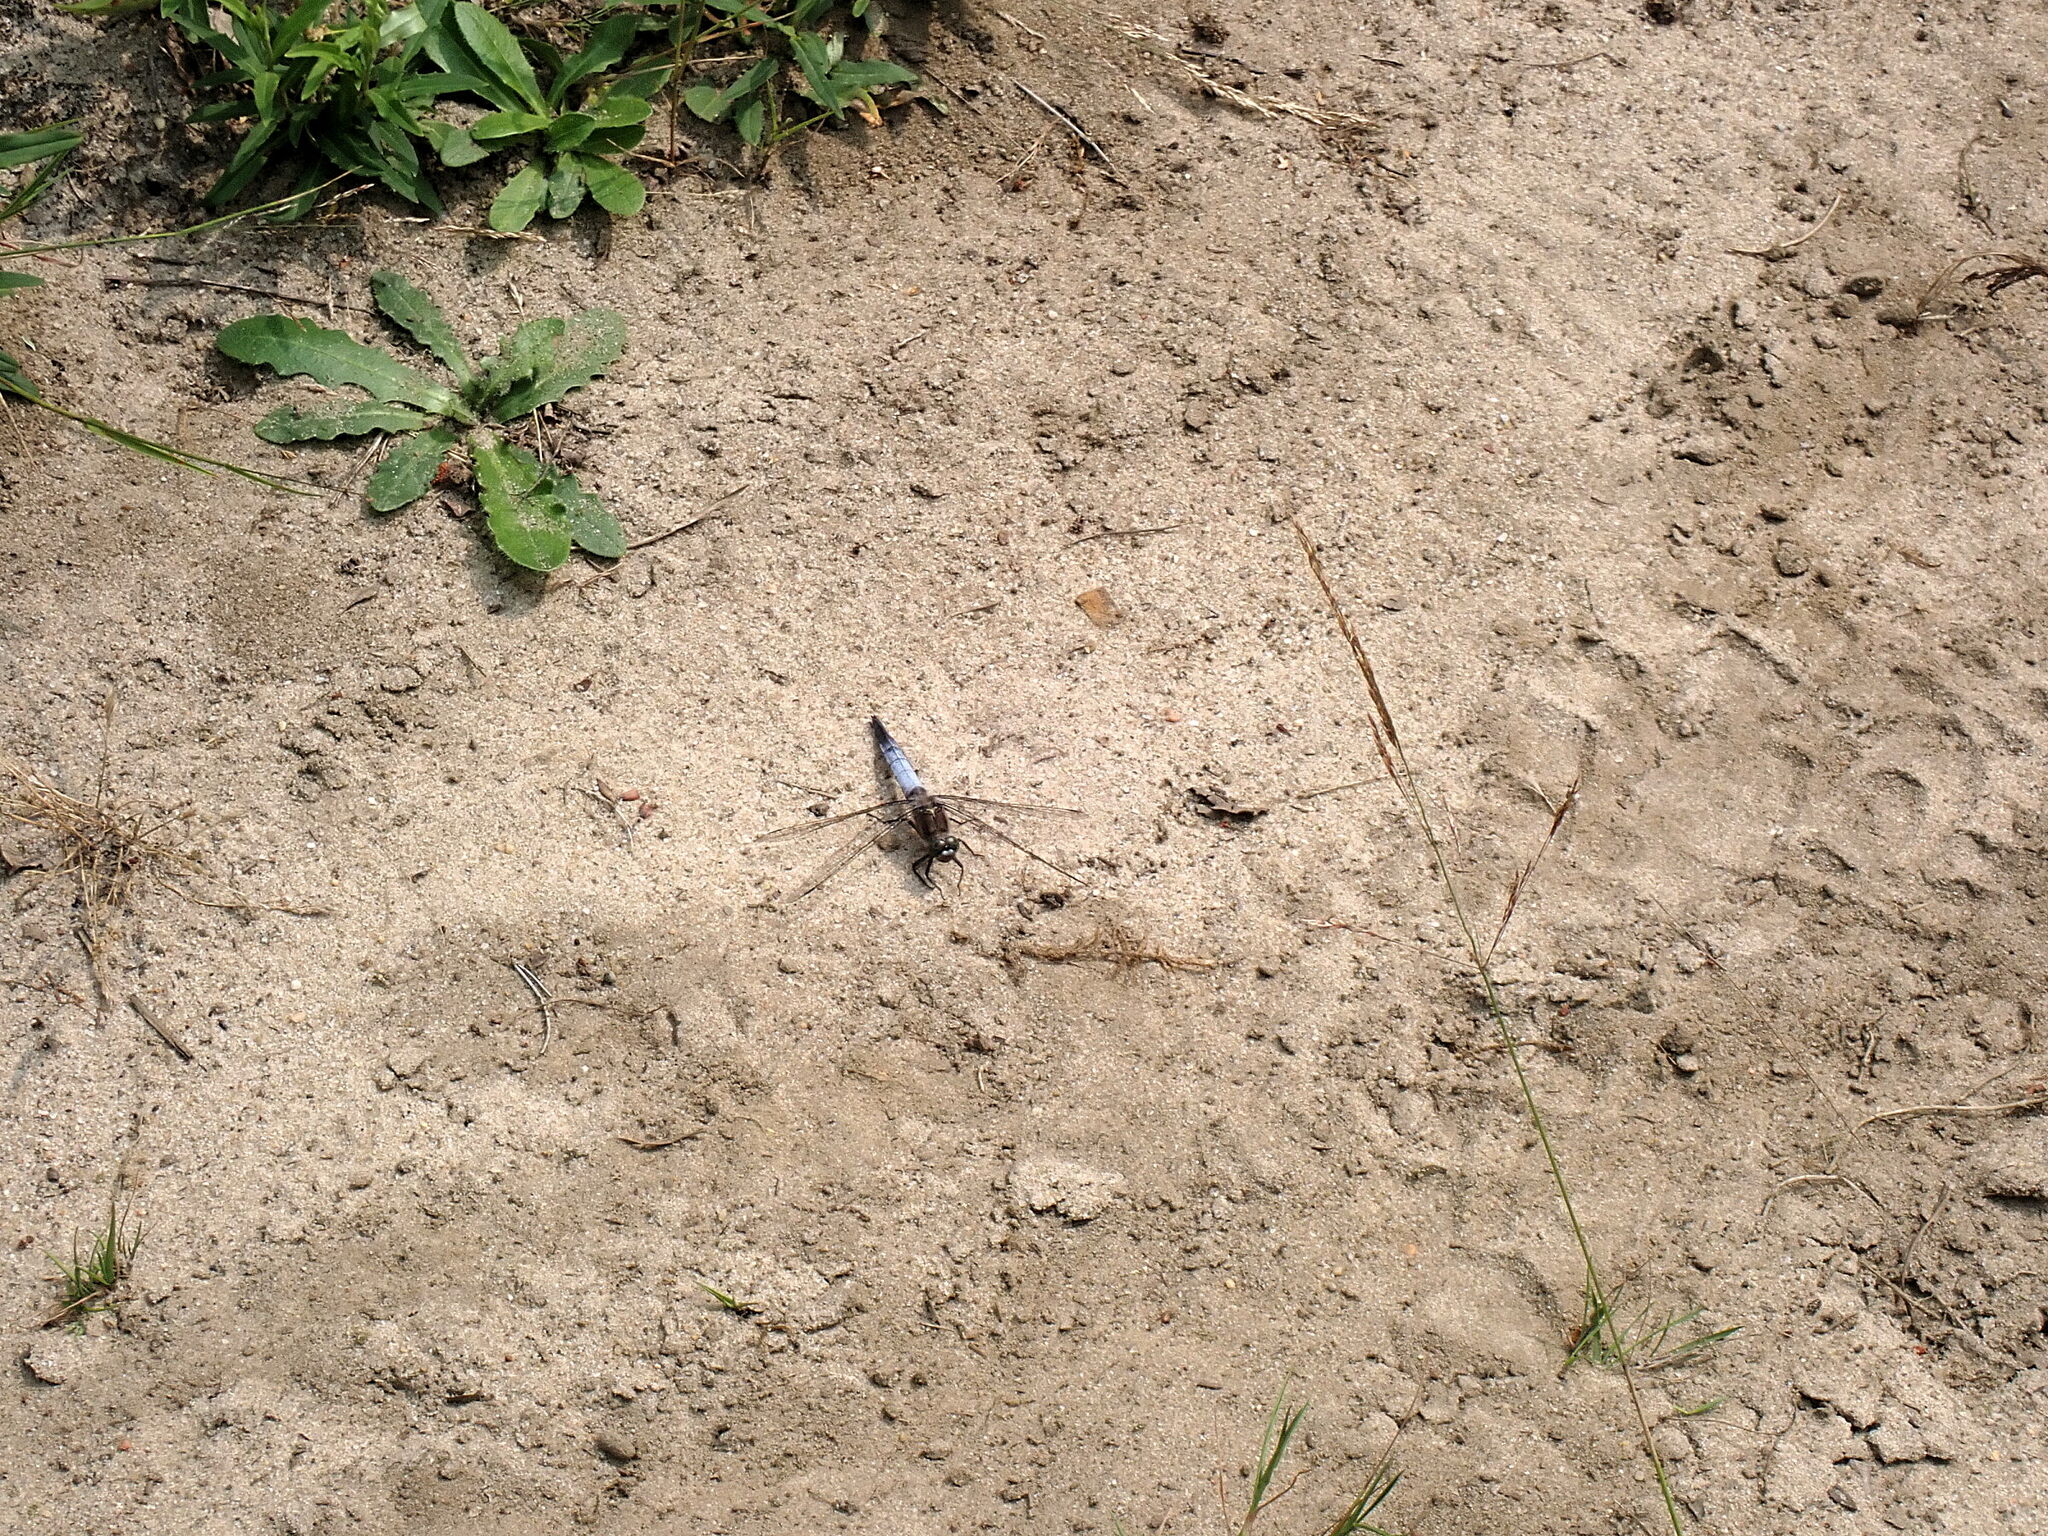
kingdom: Animalia
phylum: Arthropoda
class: Insecta
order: Odonata
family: Libellulidae
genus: Orthetrum
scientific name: Orthetrum cancellatum
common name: Black-tailed skimmer
